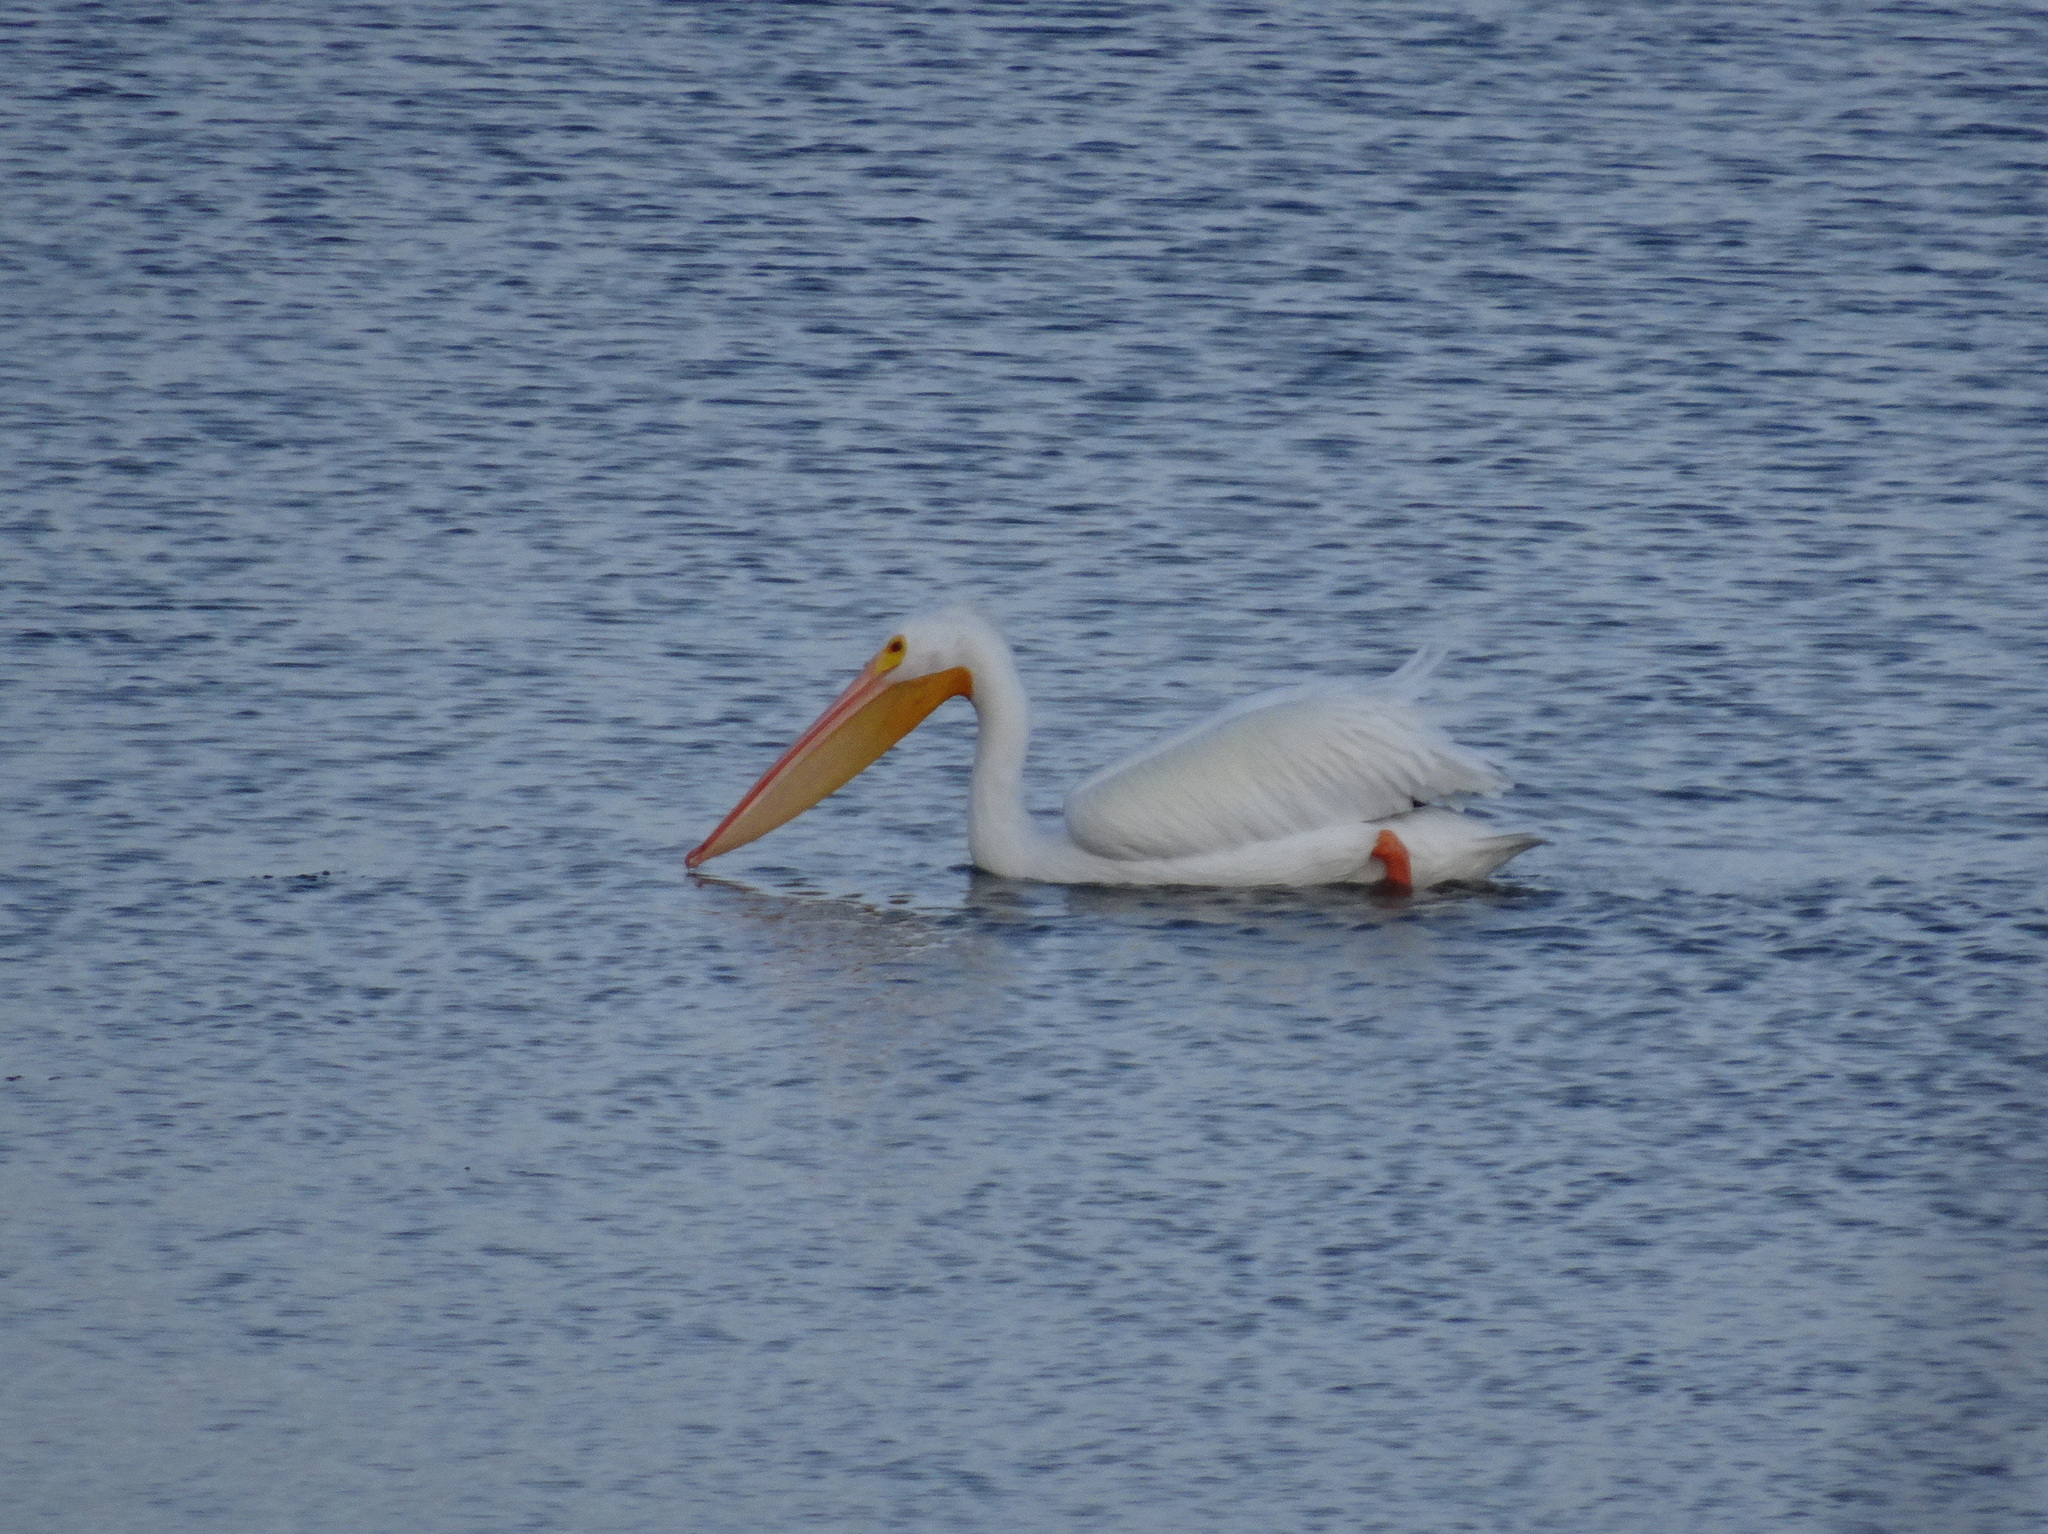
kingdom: Animalia
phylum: Chordata
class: Aves
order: Pelecaniformes
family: Pelecanidae
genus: Pelecanus
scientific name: Pelecanus erythrorhynchos
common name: American white pelican
